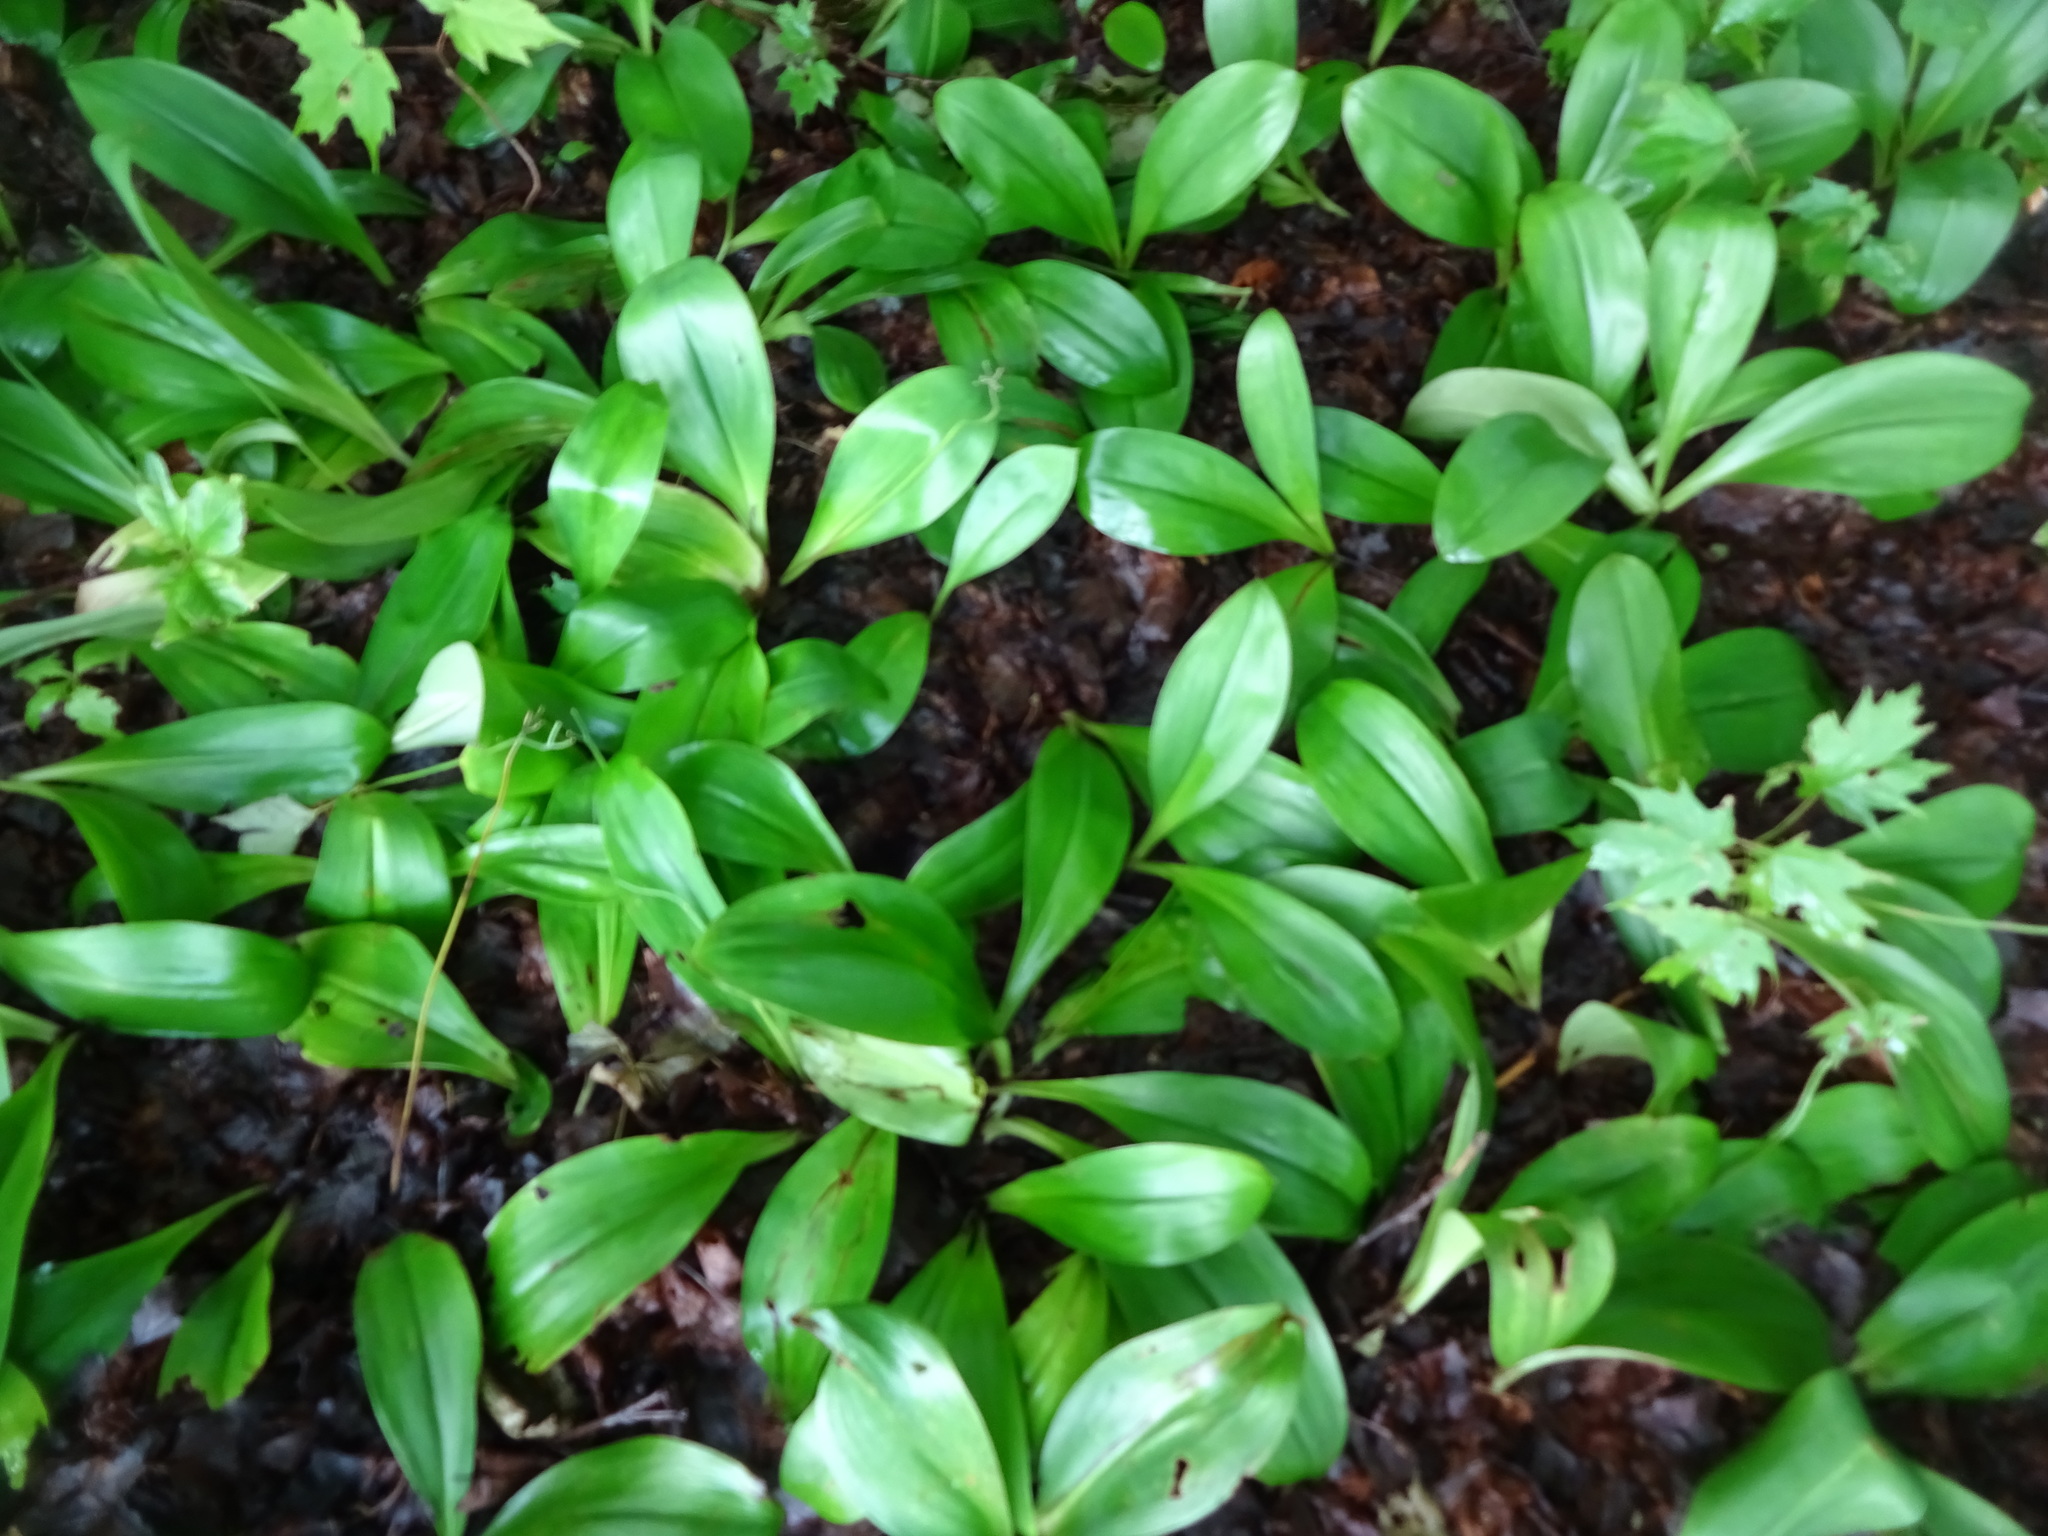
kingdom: Plantae
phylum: Tracheophyta
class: Liliopsida
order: Liliales
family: Liliaceae
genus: Clintonia
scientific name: Clintonia borealis
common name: Yellow clintonia
